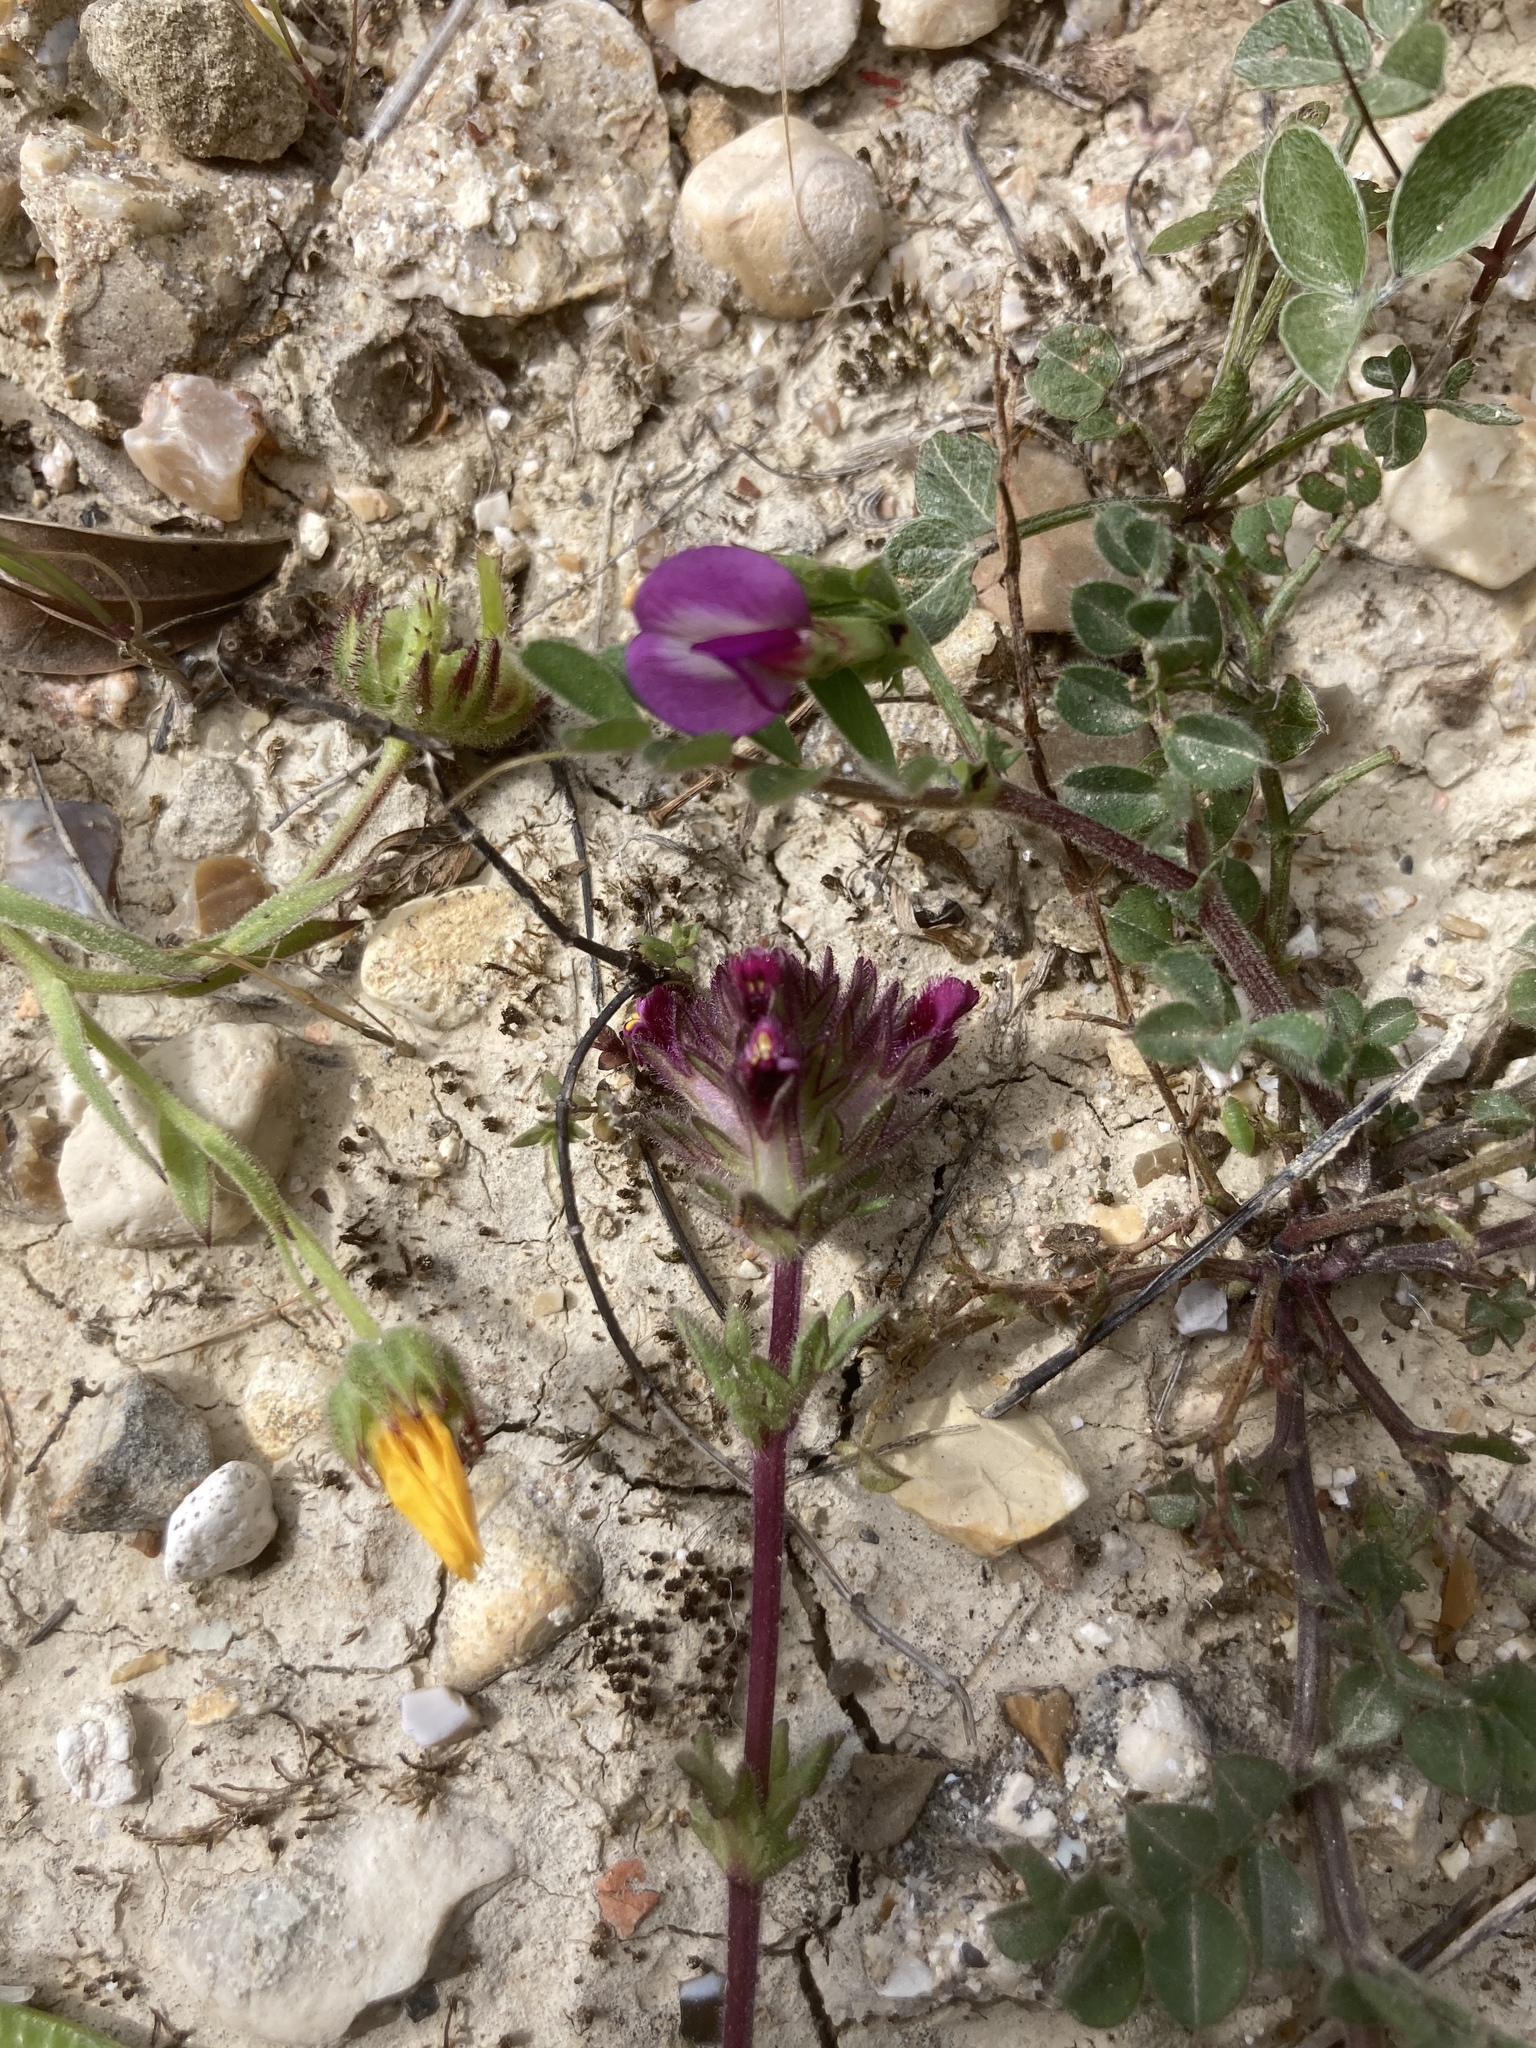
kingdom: Plantae
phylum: Tracheophyta
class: Magnoliopsida
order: Asterales
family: Asteraceae
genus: Calendula
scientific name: Calendula arvensis
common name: Field marigold
